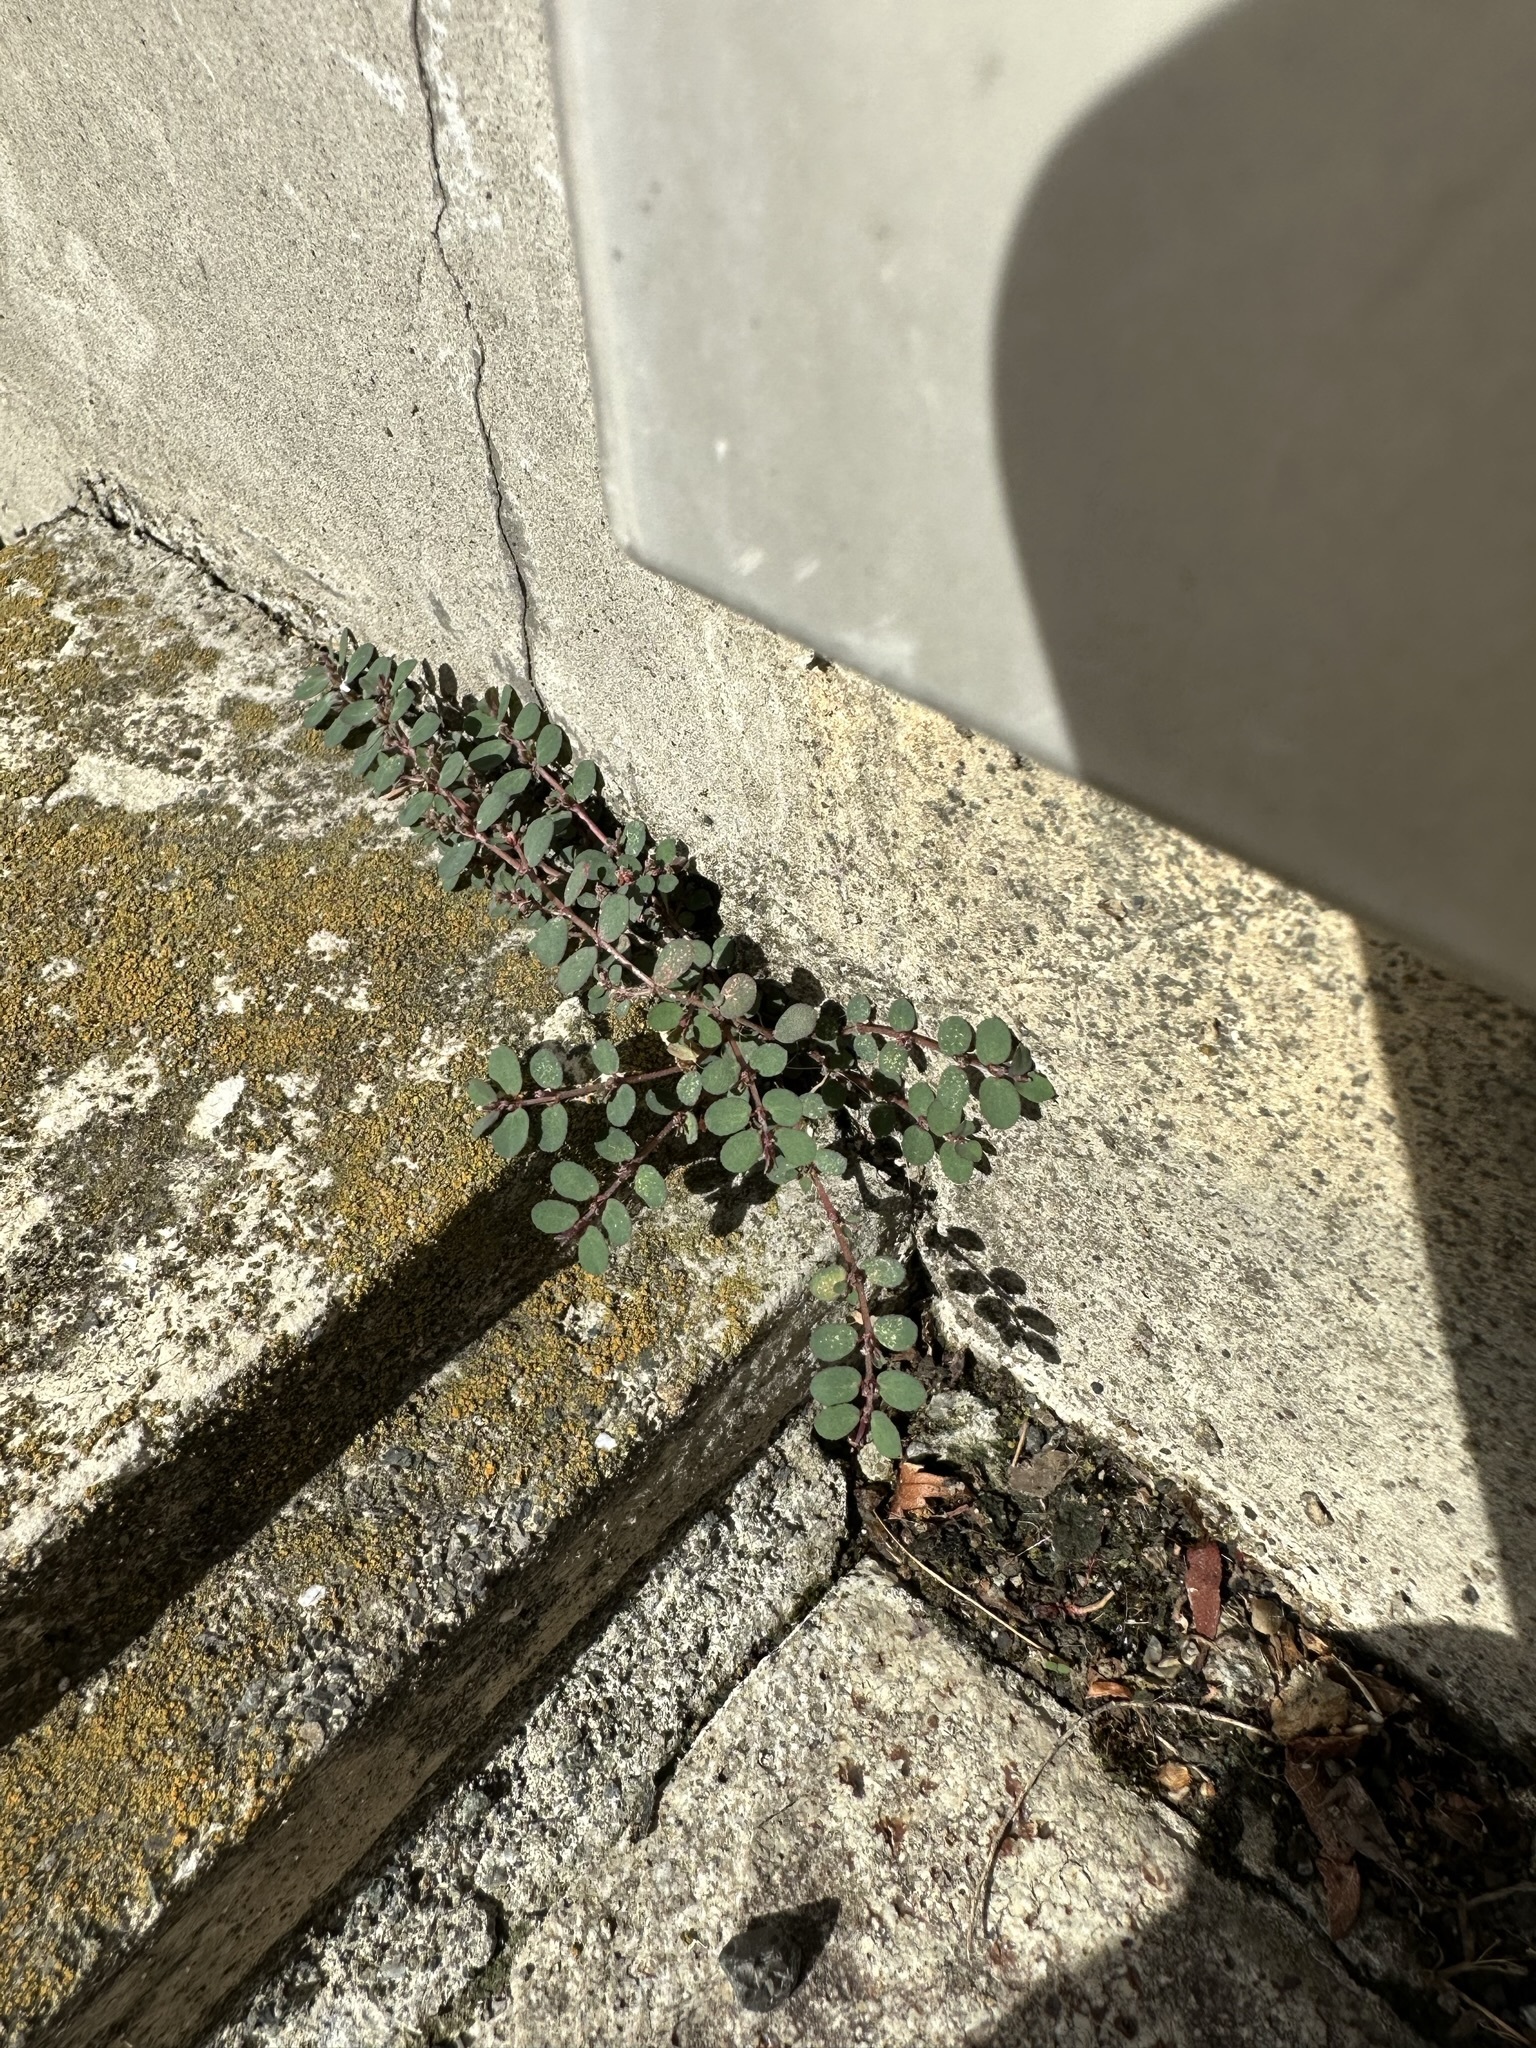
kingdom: Plantae
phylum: Tracheophyta
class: Magnoliopsida
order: Malpighiales
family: Euphorbiaceae
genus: Euphorbia
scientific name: Euphorbia prostrata
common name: Prostrate sandmat
